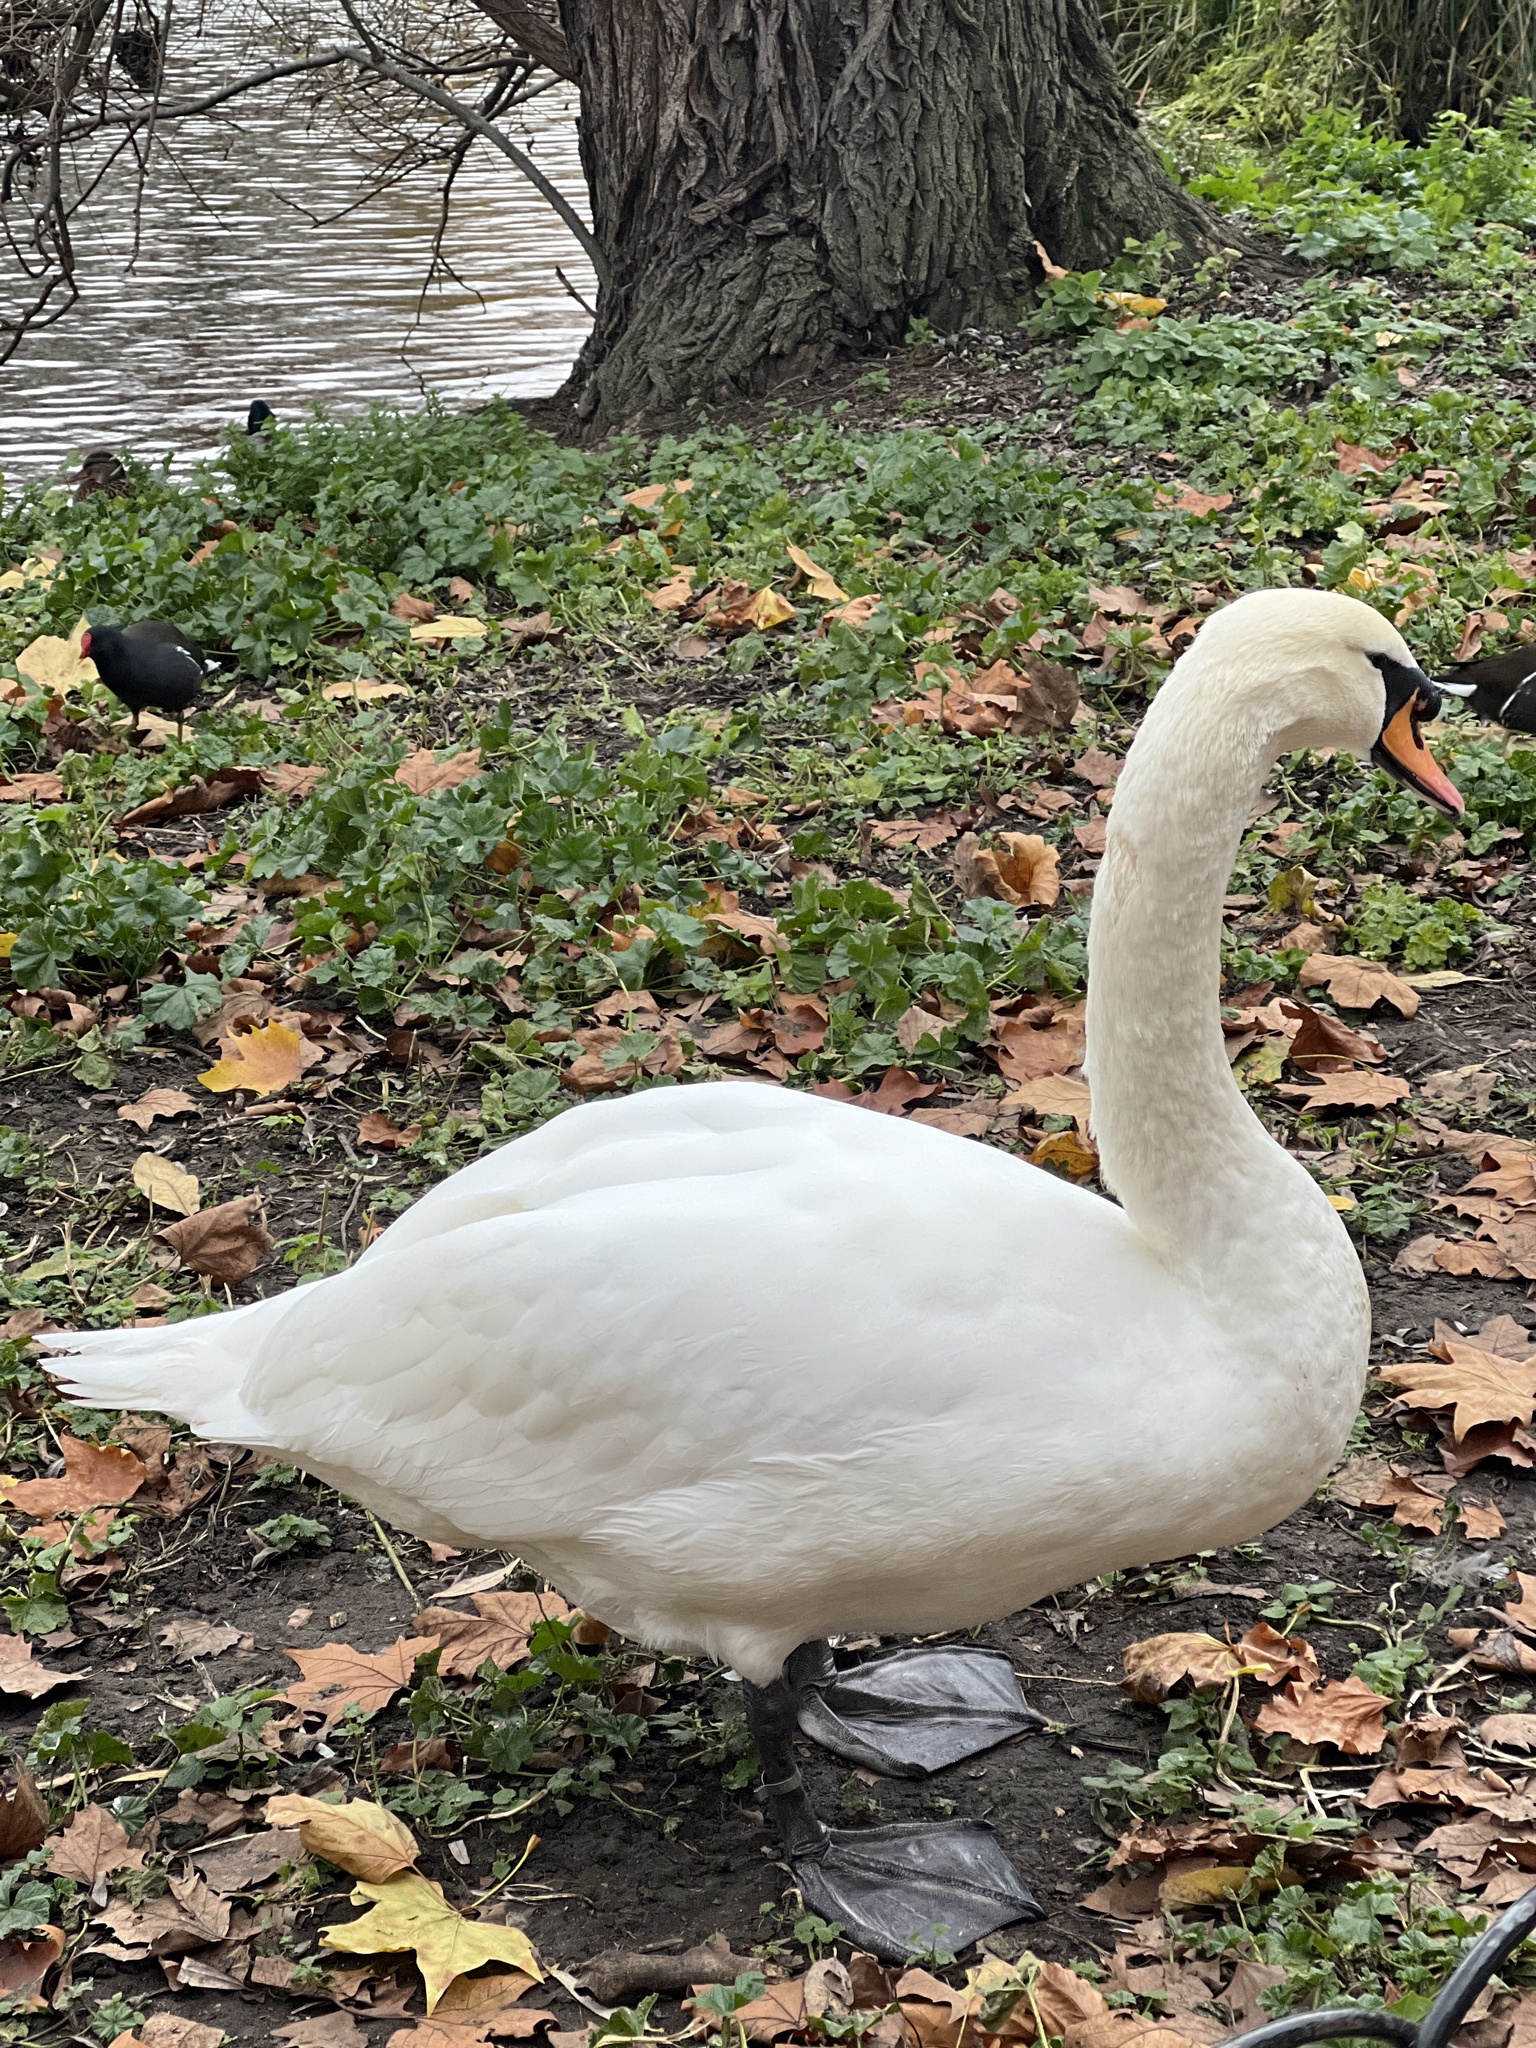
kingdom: Animalia
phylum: Chordata
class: Aves
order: Anseriformes
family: Anatidae
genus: Cygnus
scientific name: Cygnus olor
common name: Mute swan
